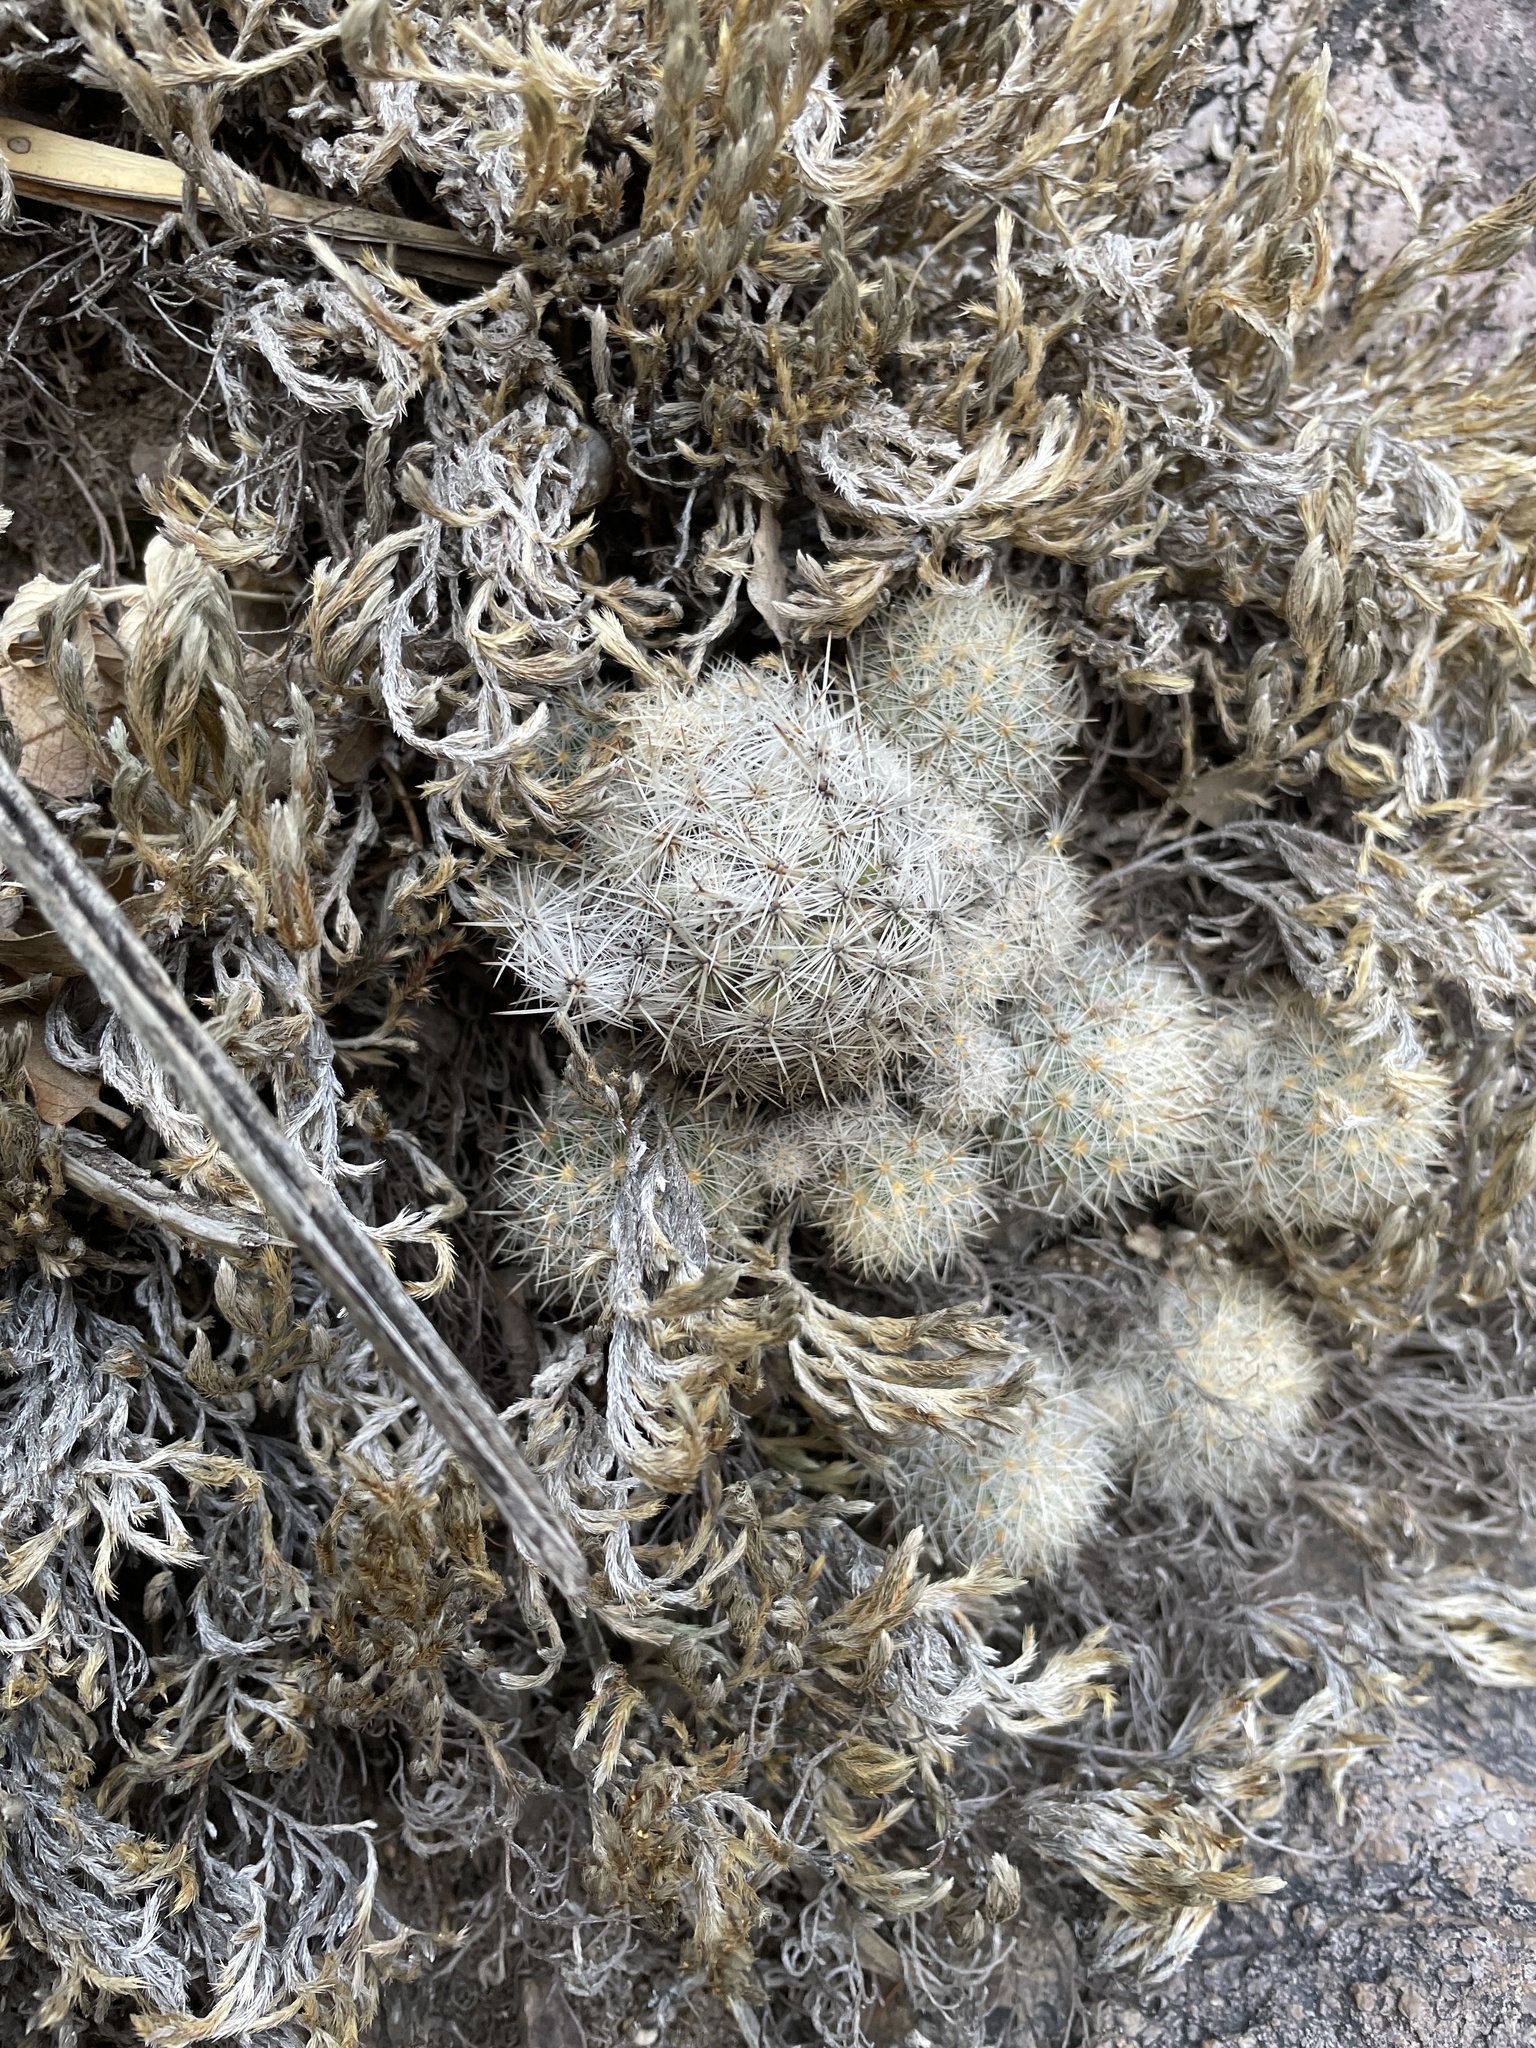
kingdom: Plantae
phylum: Tracheophyta
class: Magnoliopsida
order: Caryophyllales
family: Cactaceae
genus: Pelecyphora
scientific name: Pelecyphora sneedii
